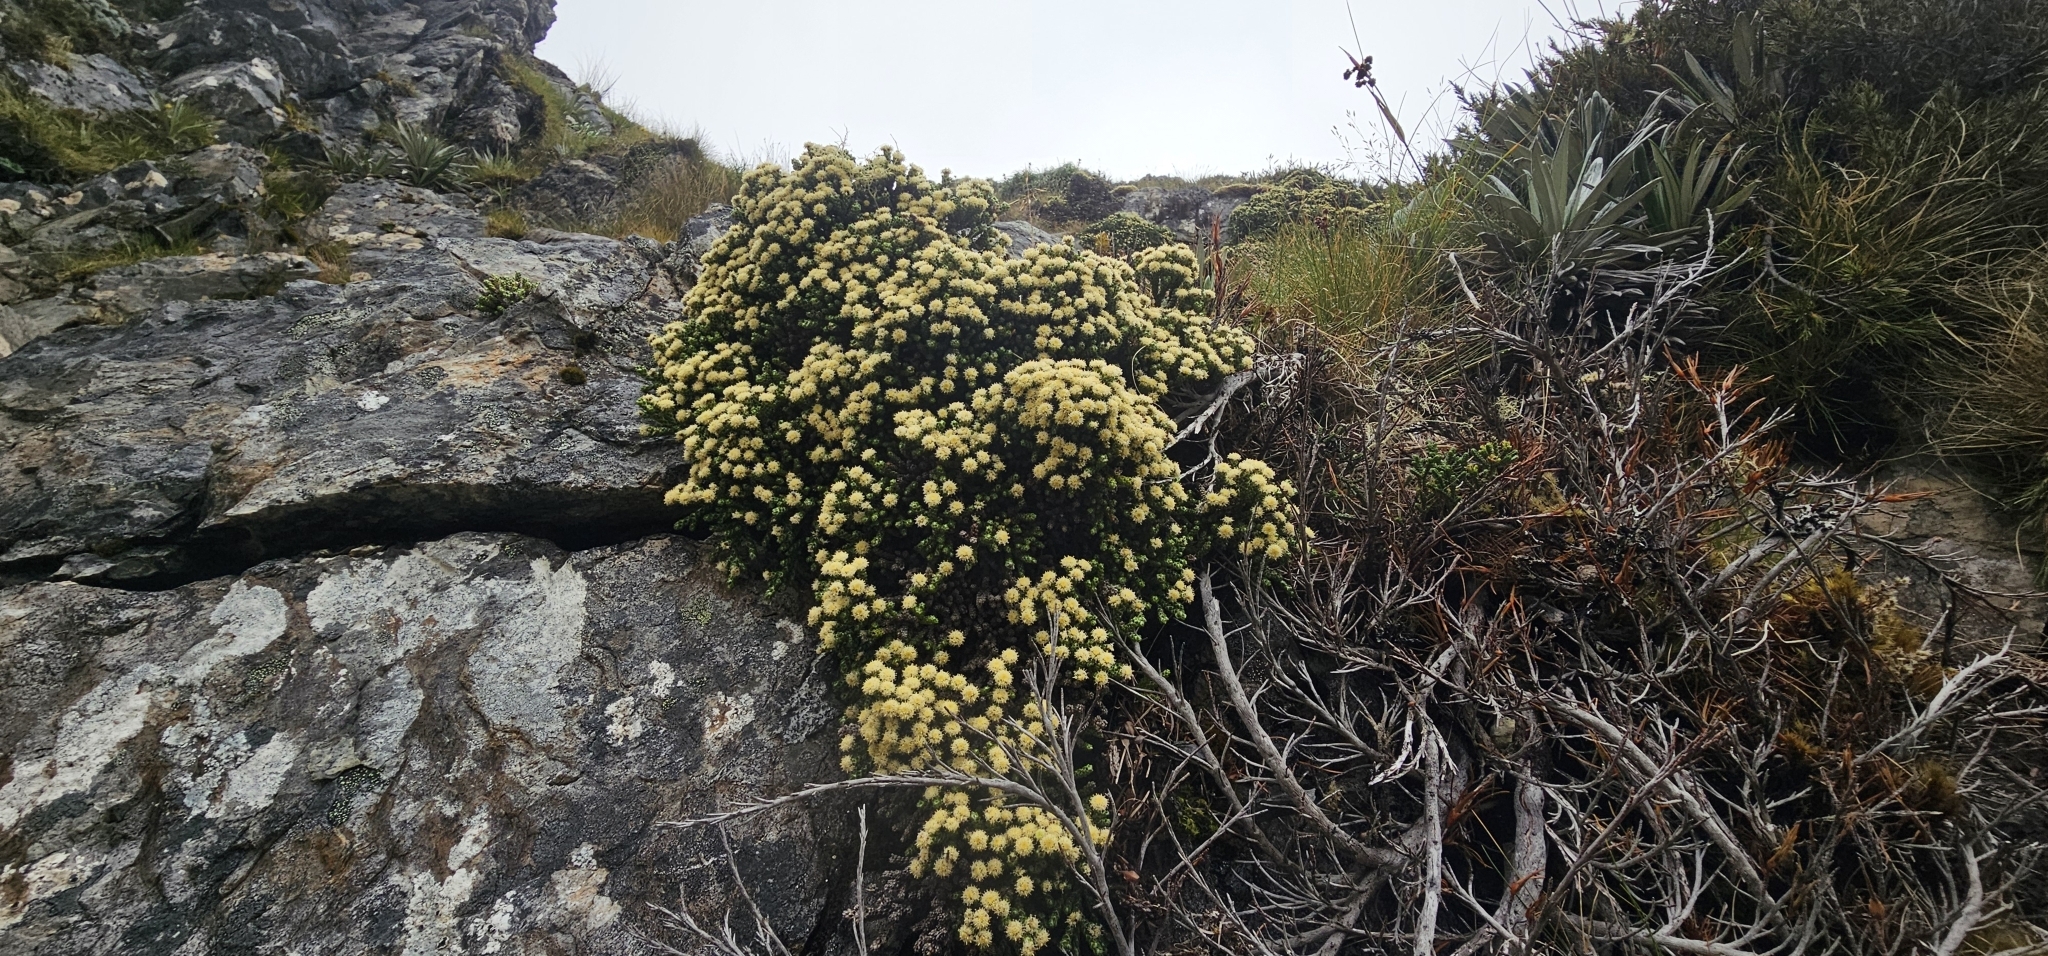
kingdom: Plantae
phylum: Tracheophyta
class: Magnoliopsida
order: Asterales
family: Asteraceae
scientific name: Asteraceae
